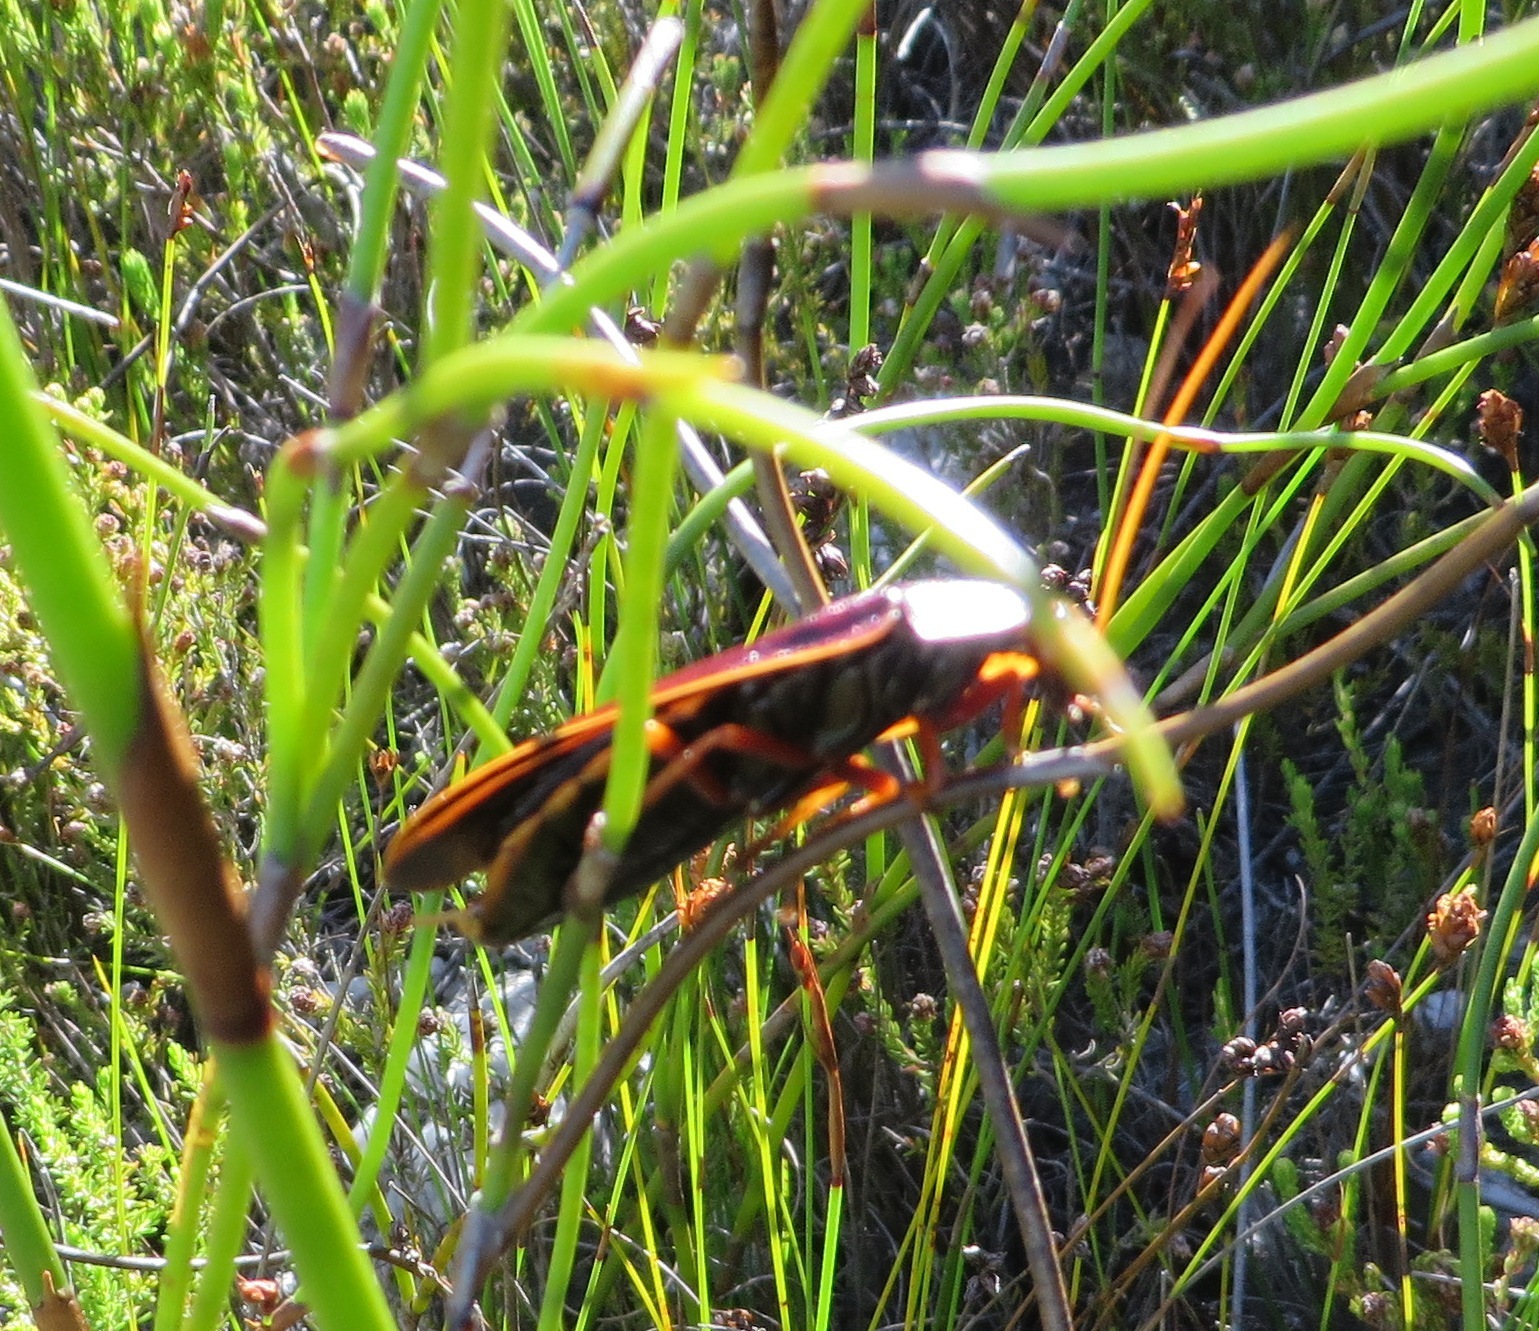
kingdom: Animalia
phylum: Arthropoda
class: Insecta
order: Blattodea
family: Blaberidae
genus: Aptera
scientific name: Aptera fusca
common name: Cape mountain cockroach
